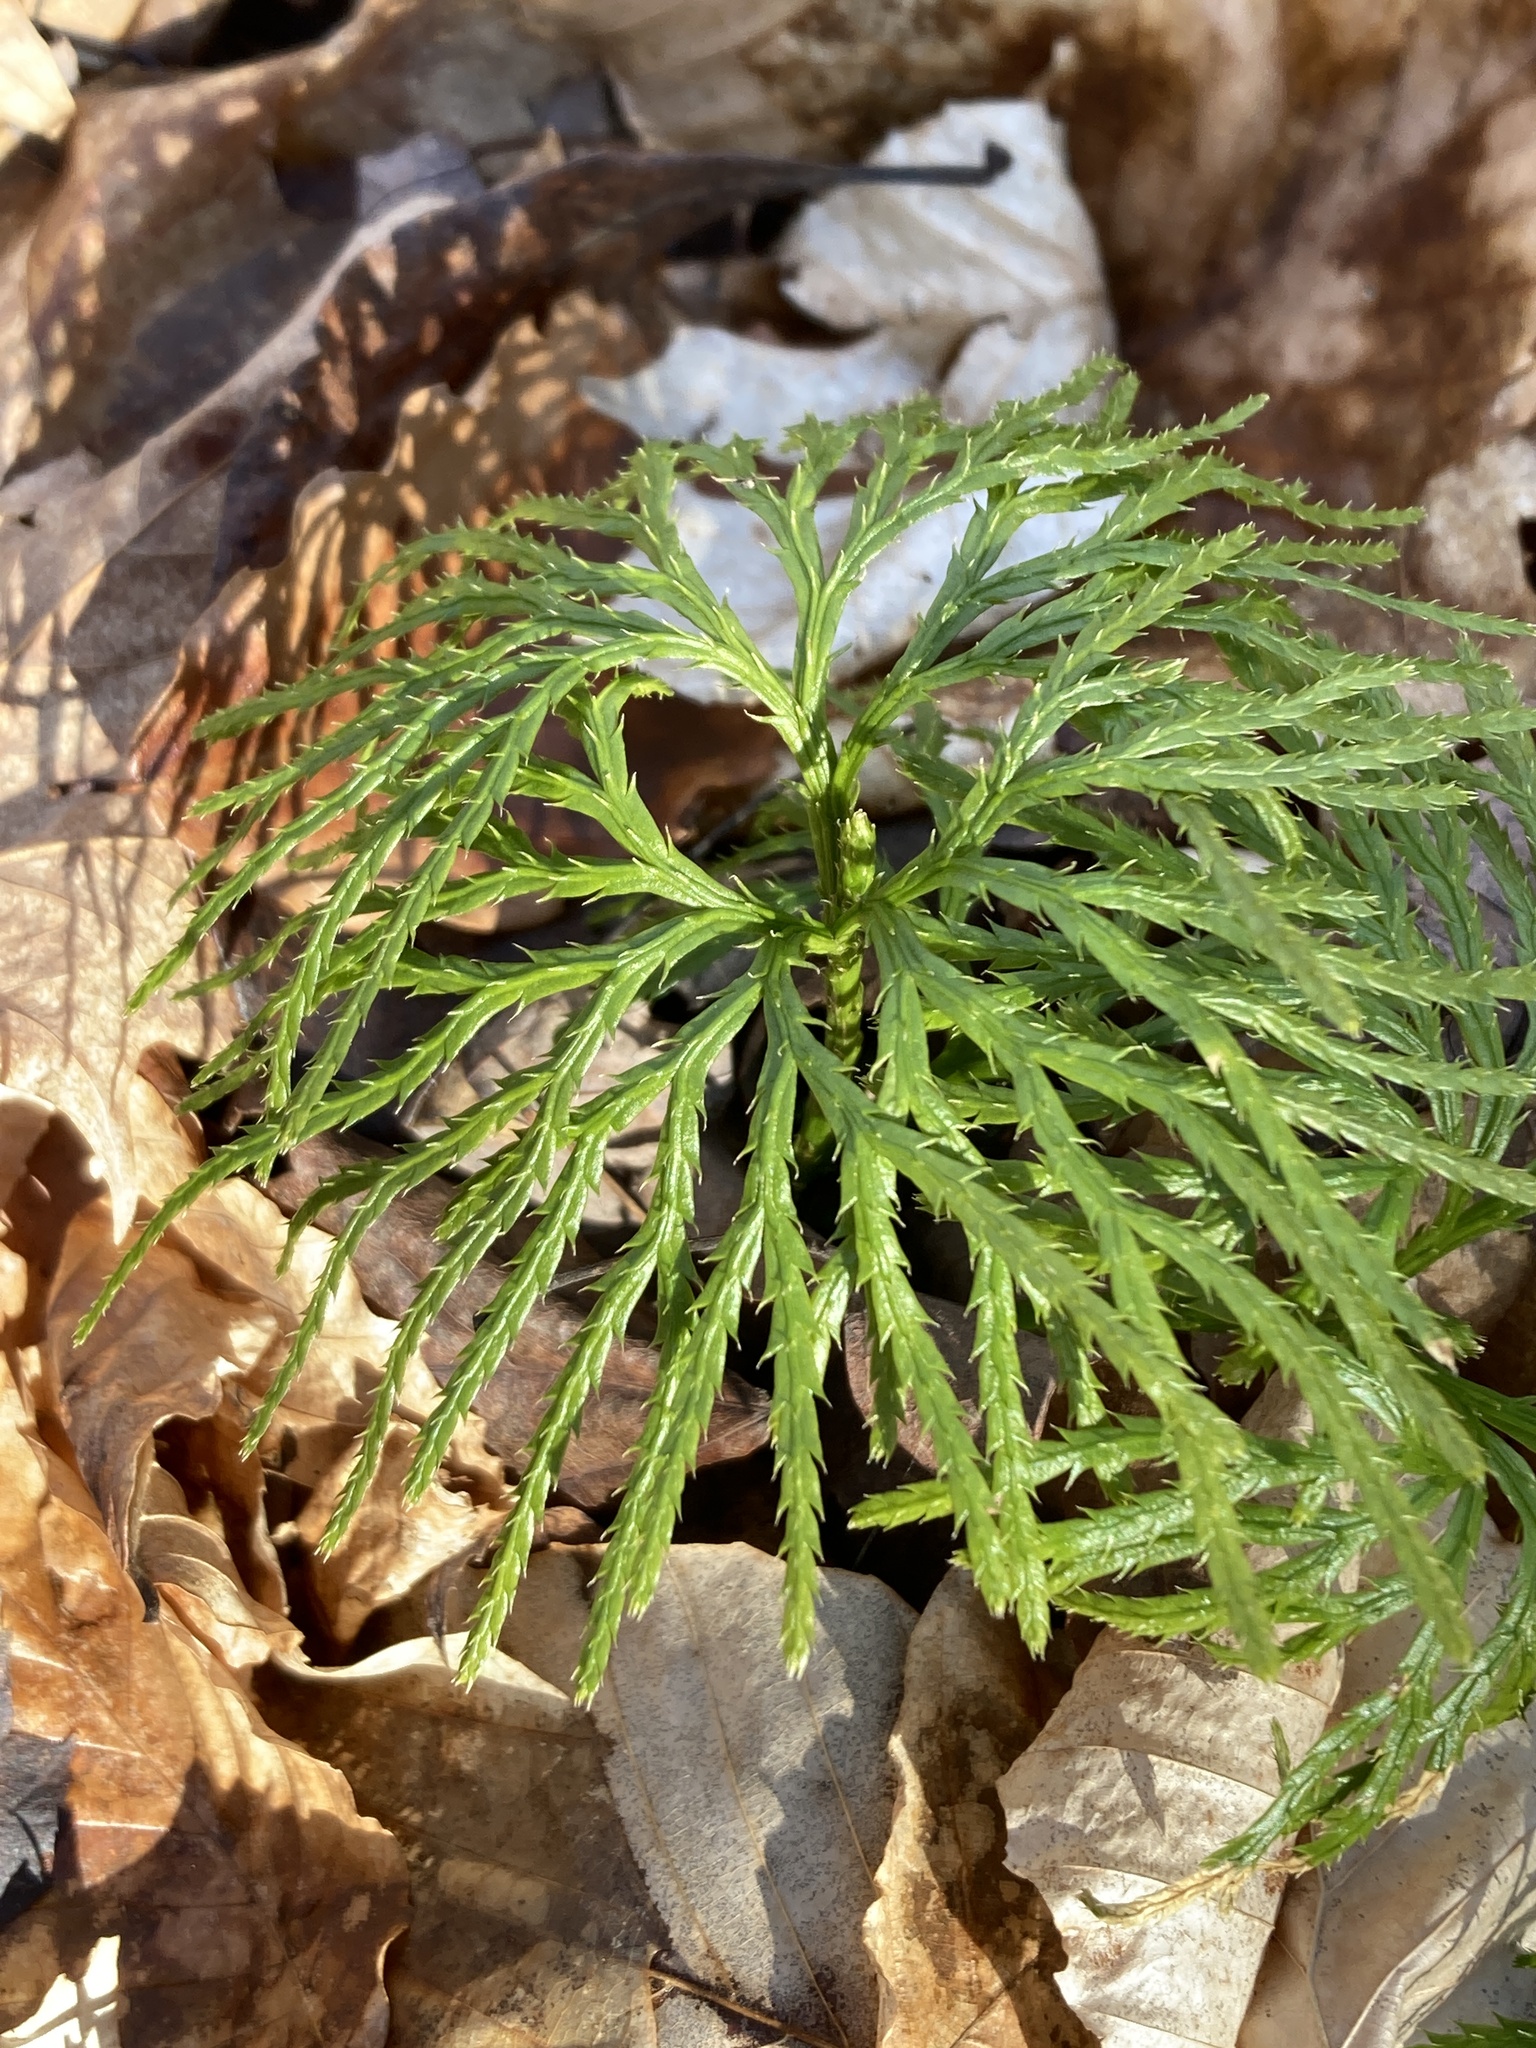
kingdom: Plantae
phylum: Tracheophyta
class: Lycopodiopsida
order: Lycopodiales
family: Lycopodiaceae
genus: Diphasiastrum
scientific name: Diphasiastrum digitatum
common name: Southern running-pine
